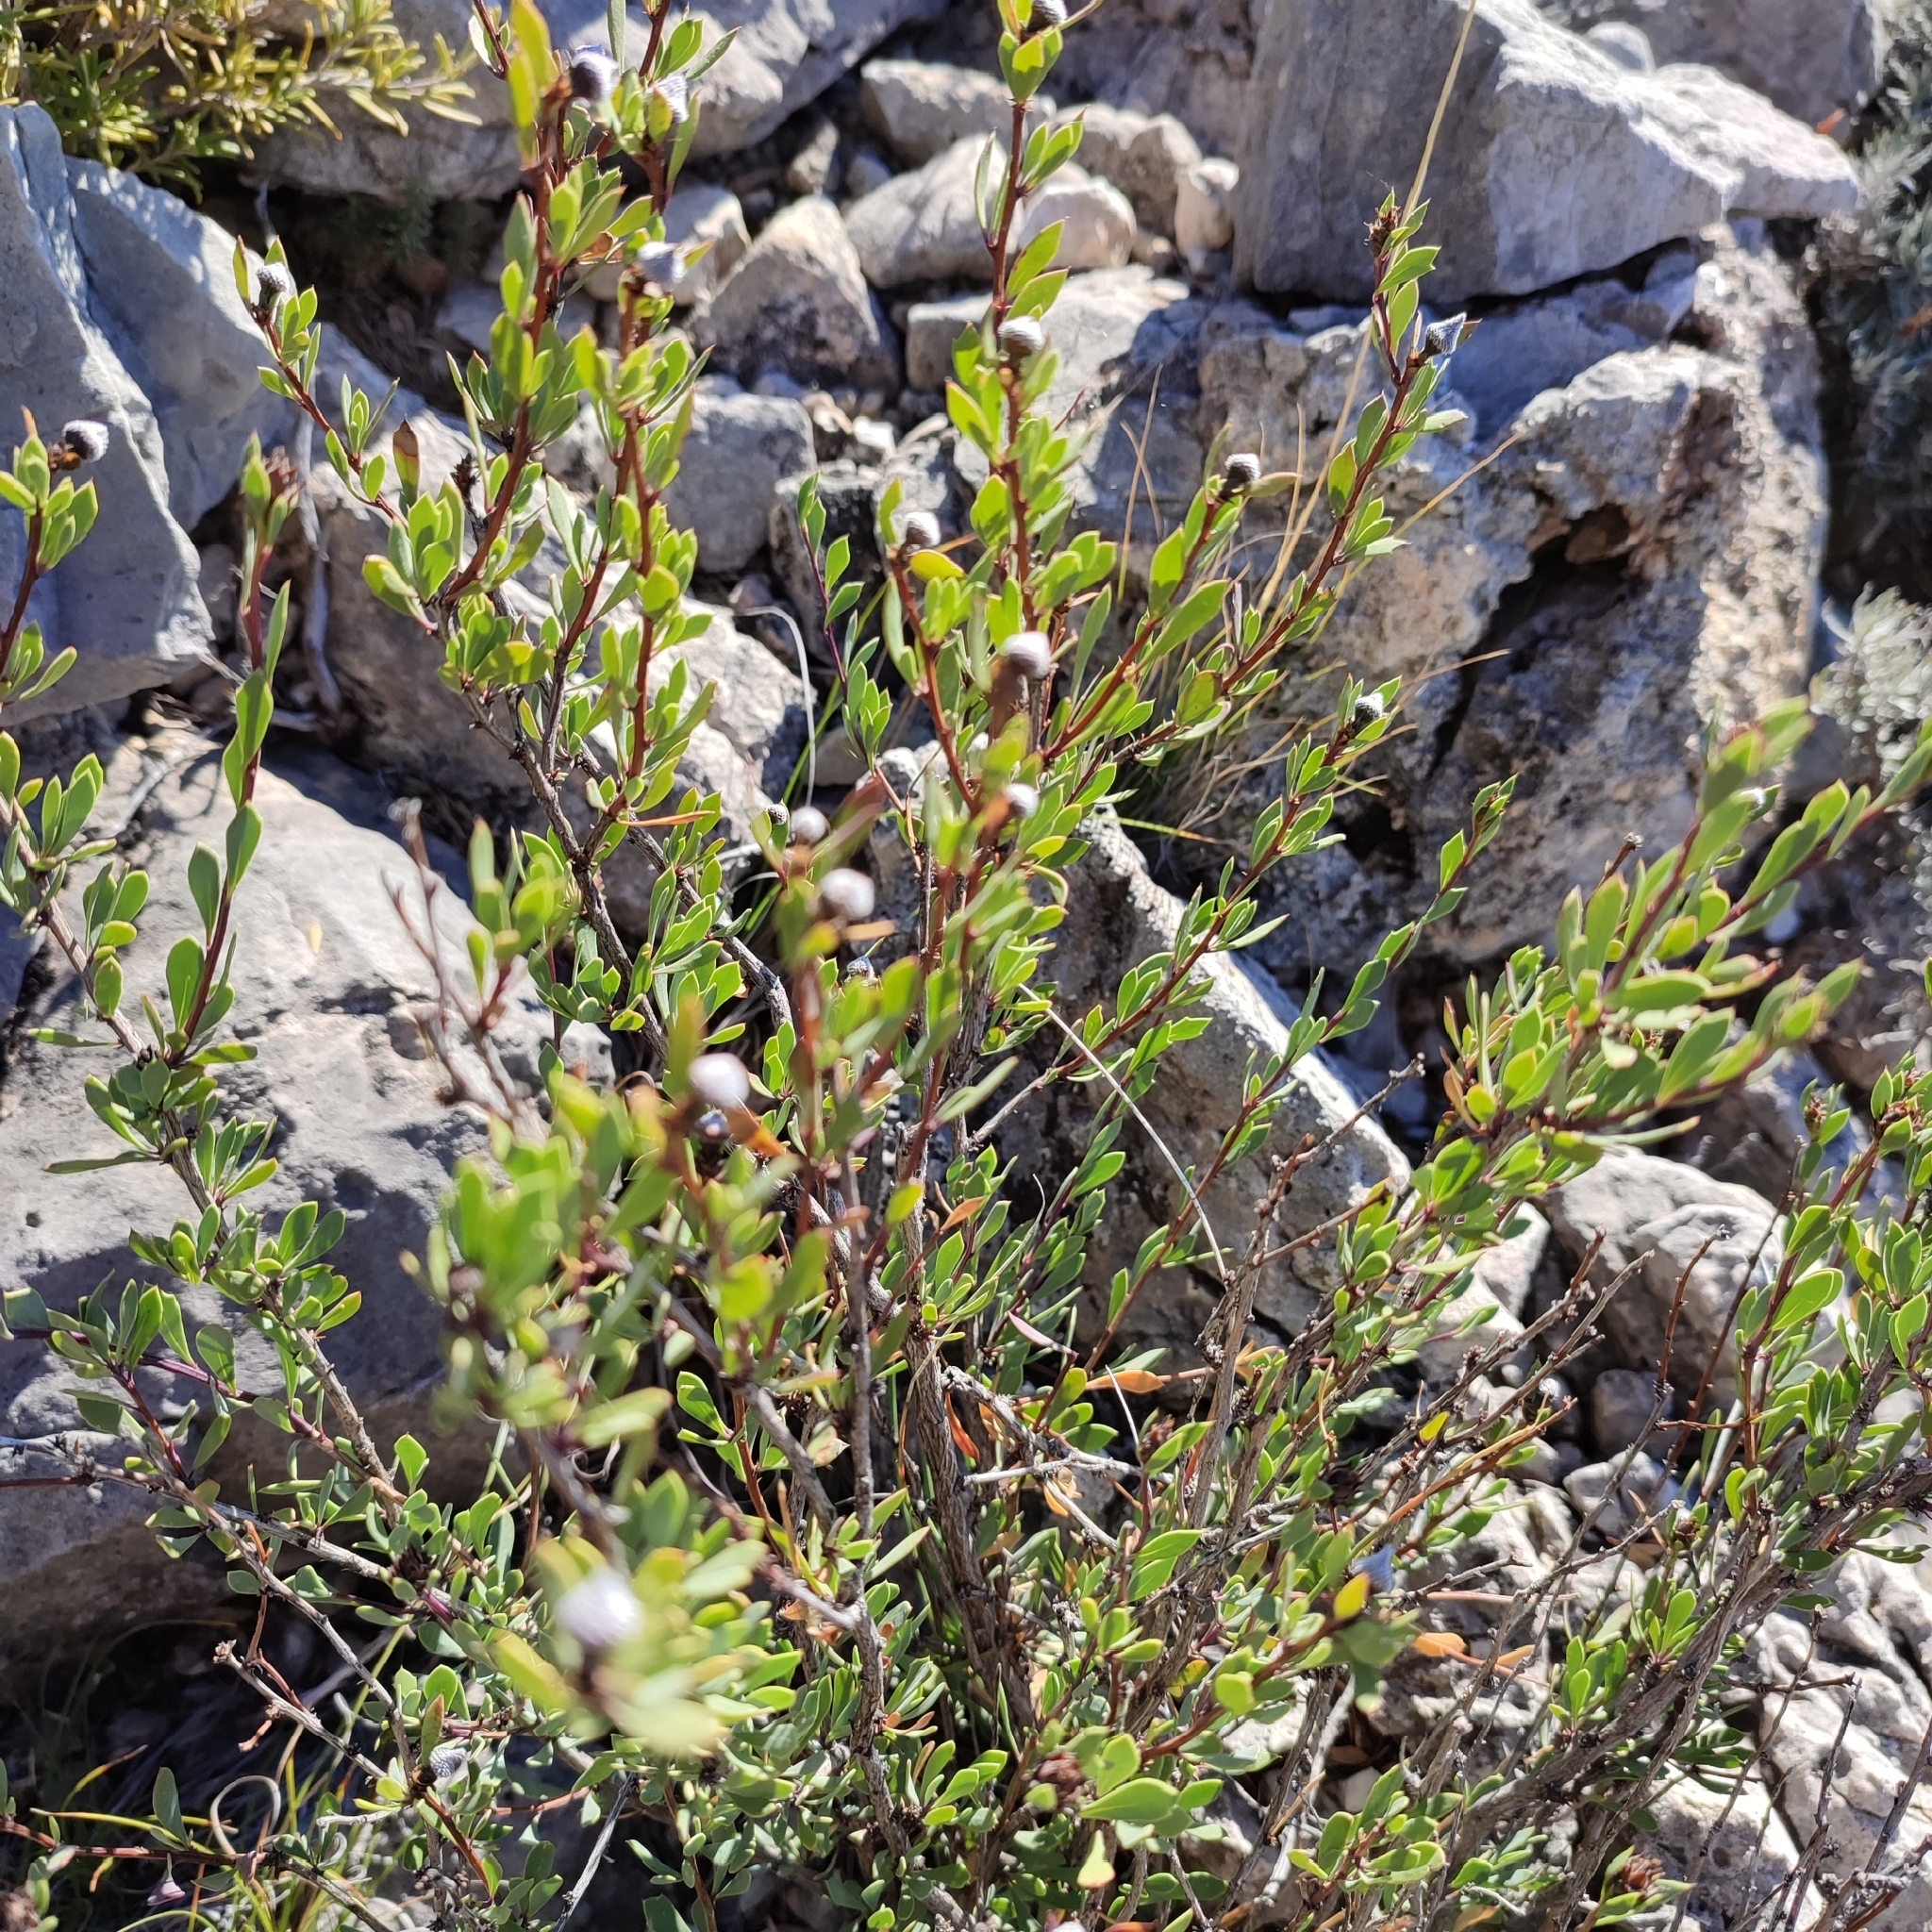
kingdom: Plantae
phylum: Tracheophyta
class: Magnoliopsida
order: Lamiales
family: Plantaginaceae
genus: Globularia
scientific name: Globularia alypum
